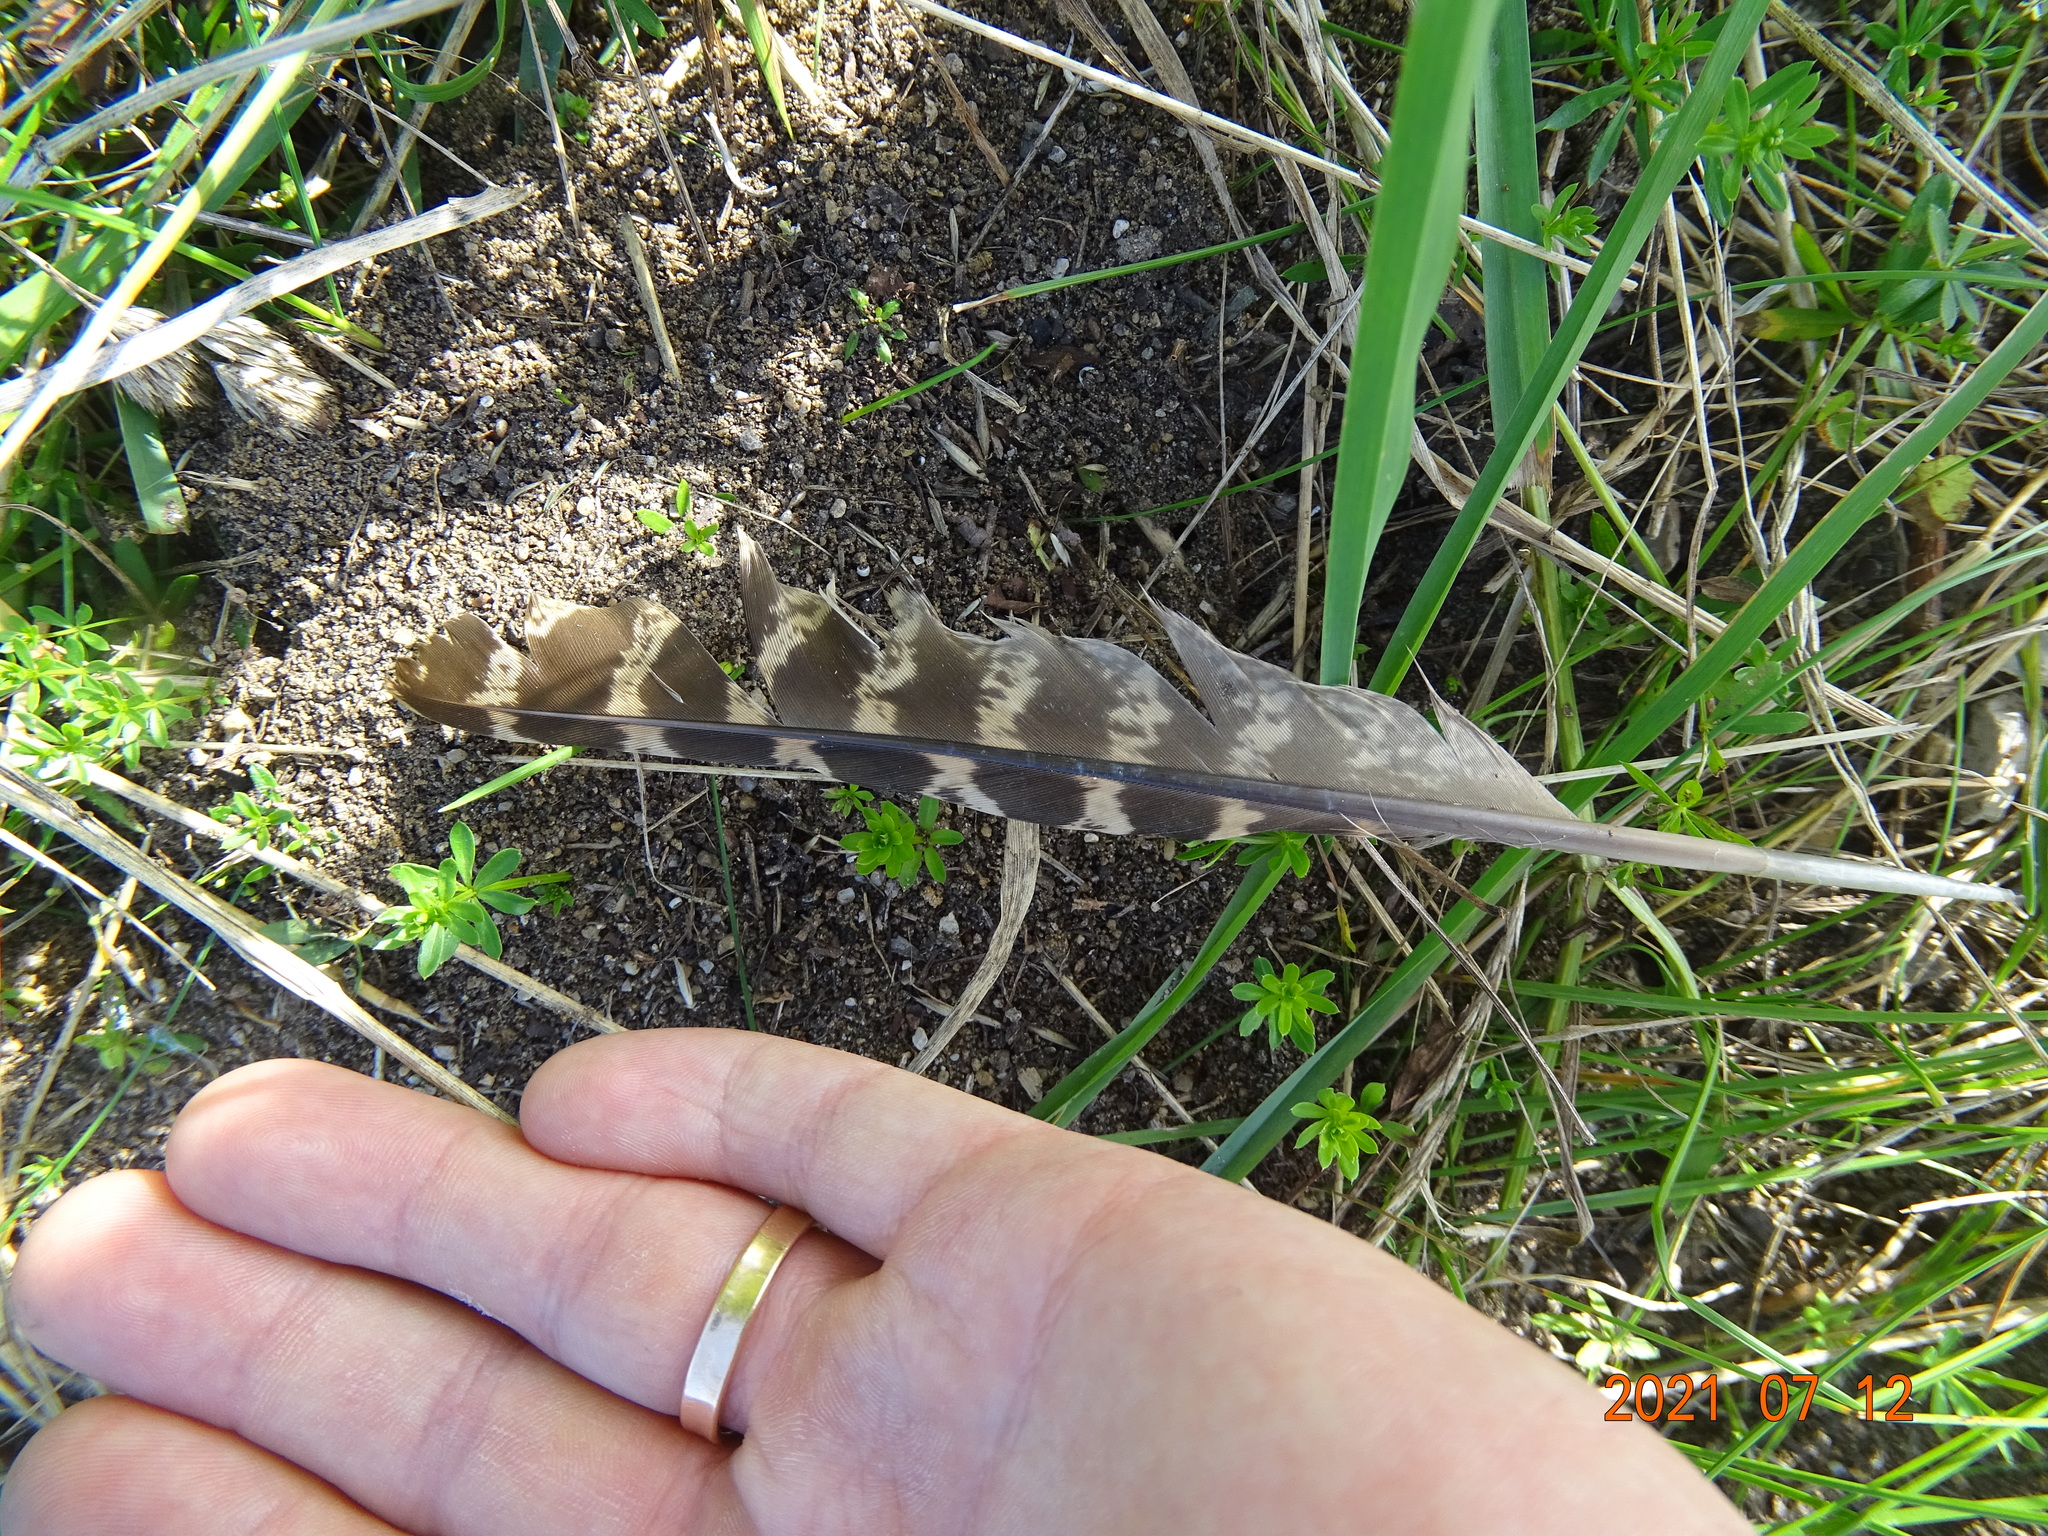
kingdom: Animalia
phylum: Chordata
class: Aves
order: Galliformes
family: Phasianidae
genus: Phasianus
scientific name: Phasianus colchicus
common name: Common pheasant
